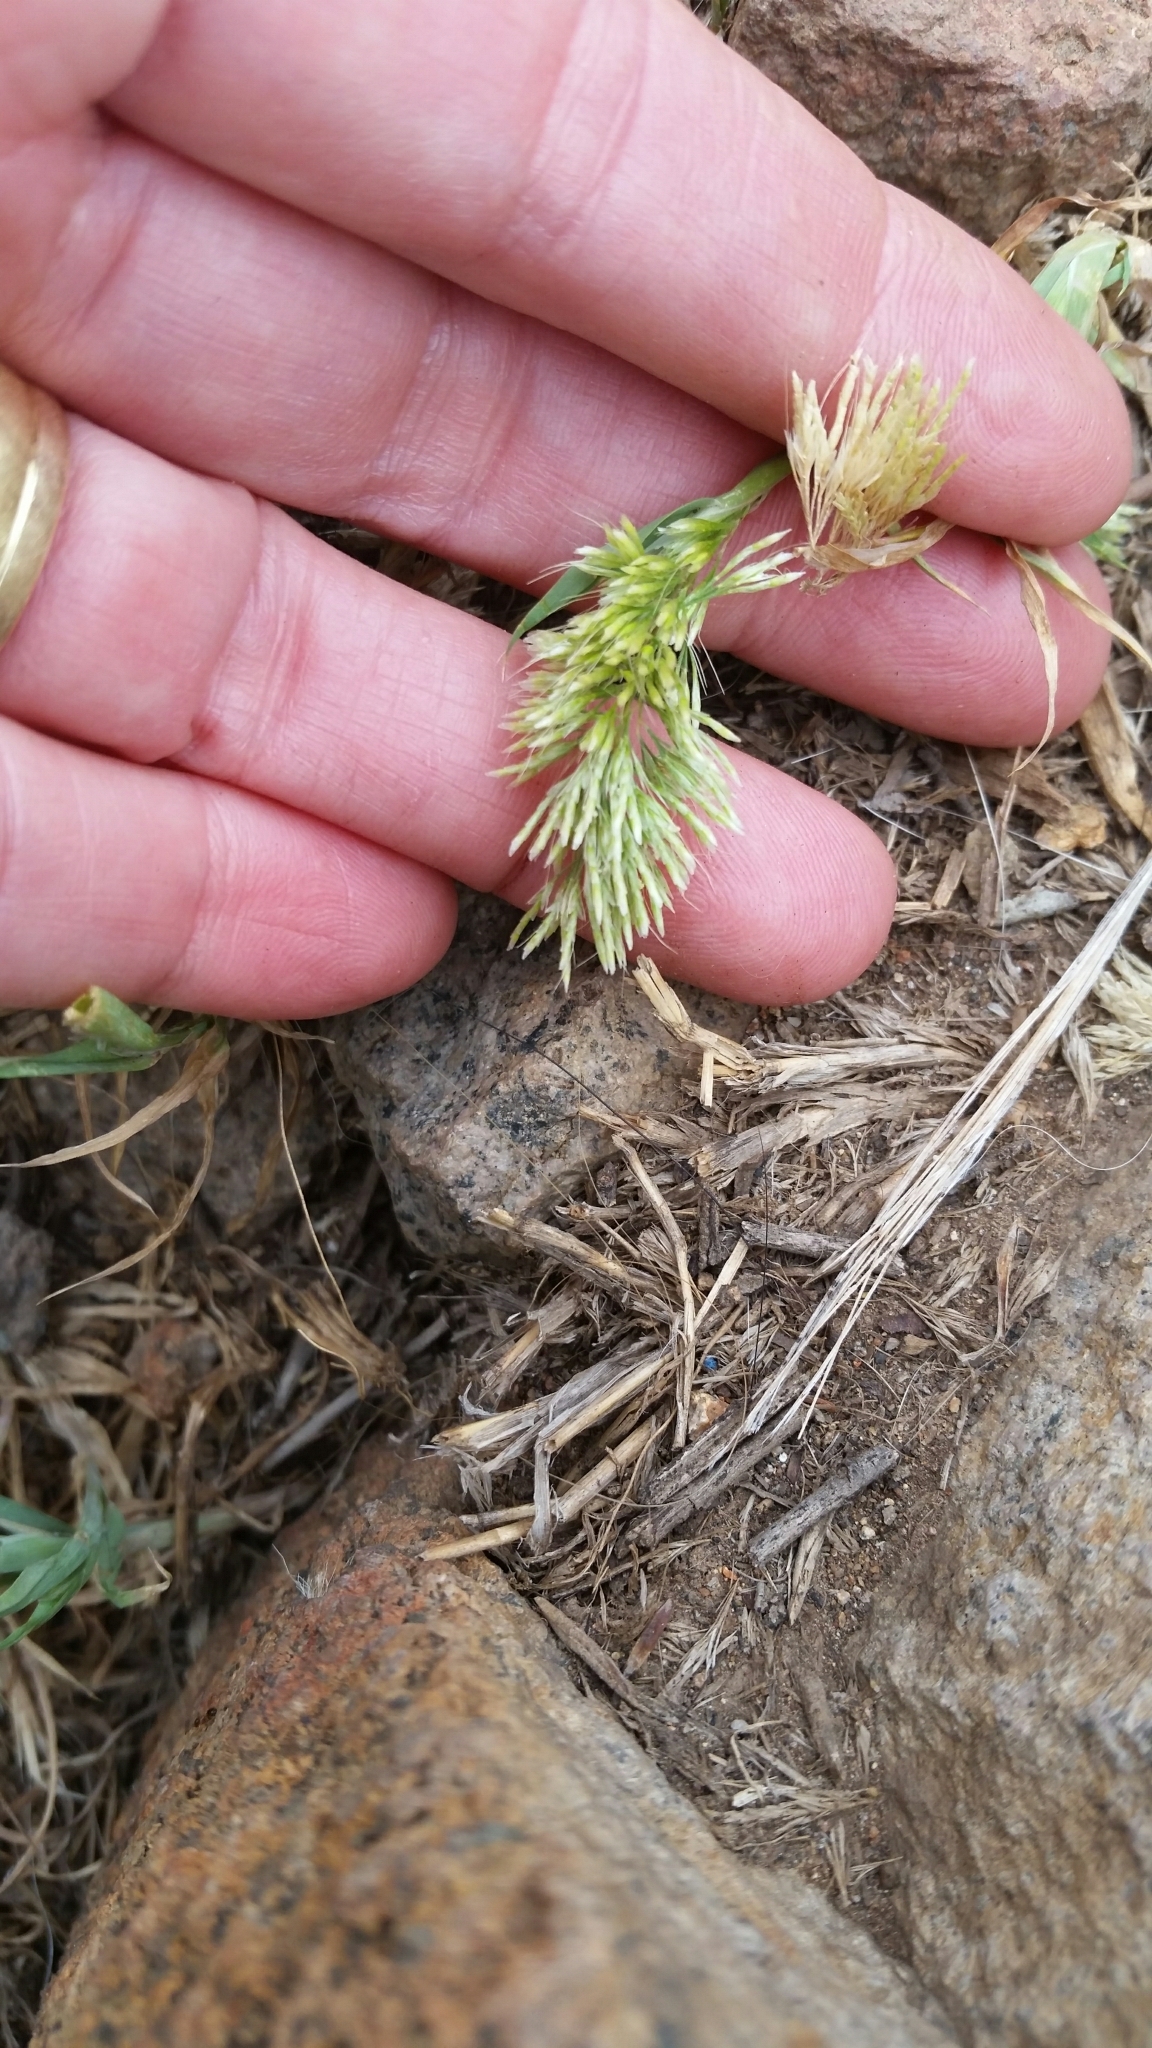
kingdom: Plantae
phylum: Tracheophyta
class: Liliopsida
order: Poales
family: Poaceae
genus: Lamarckia
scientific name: Lamarckia aurea
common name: Golden dog's-tail
